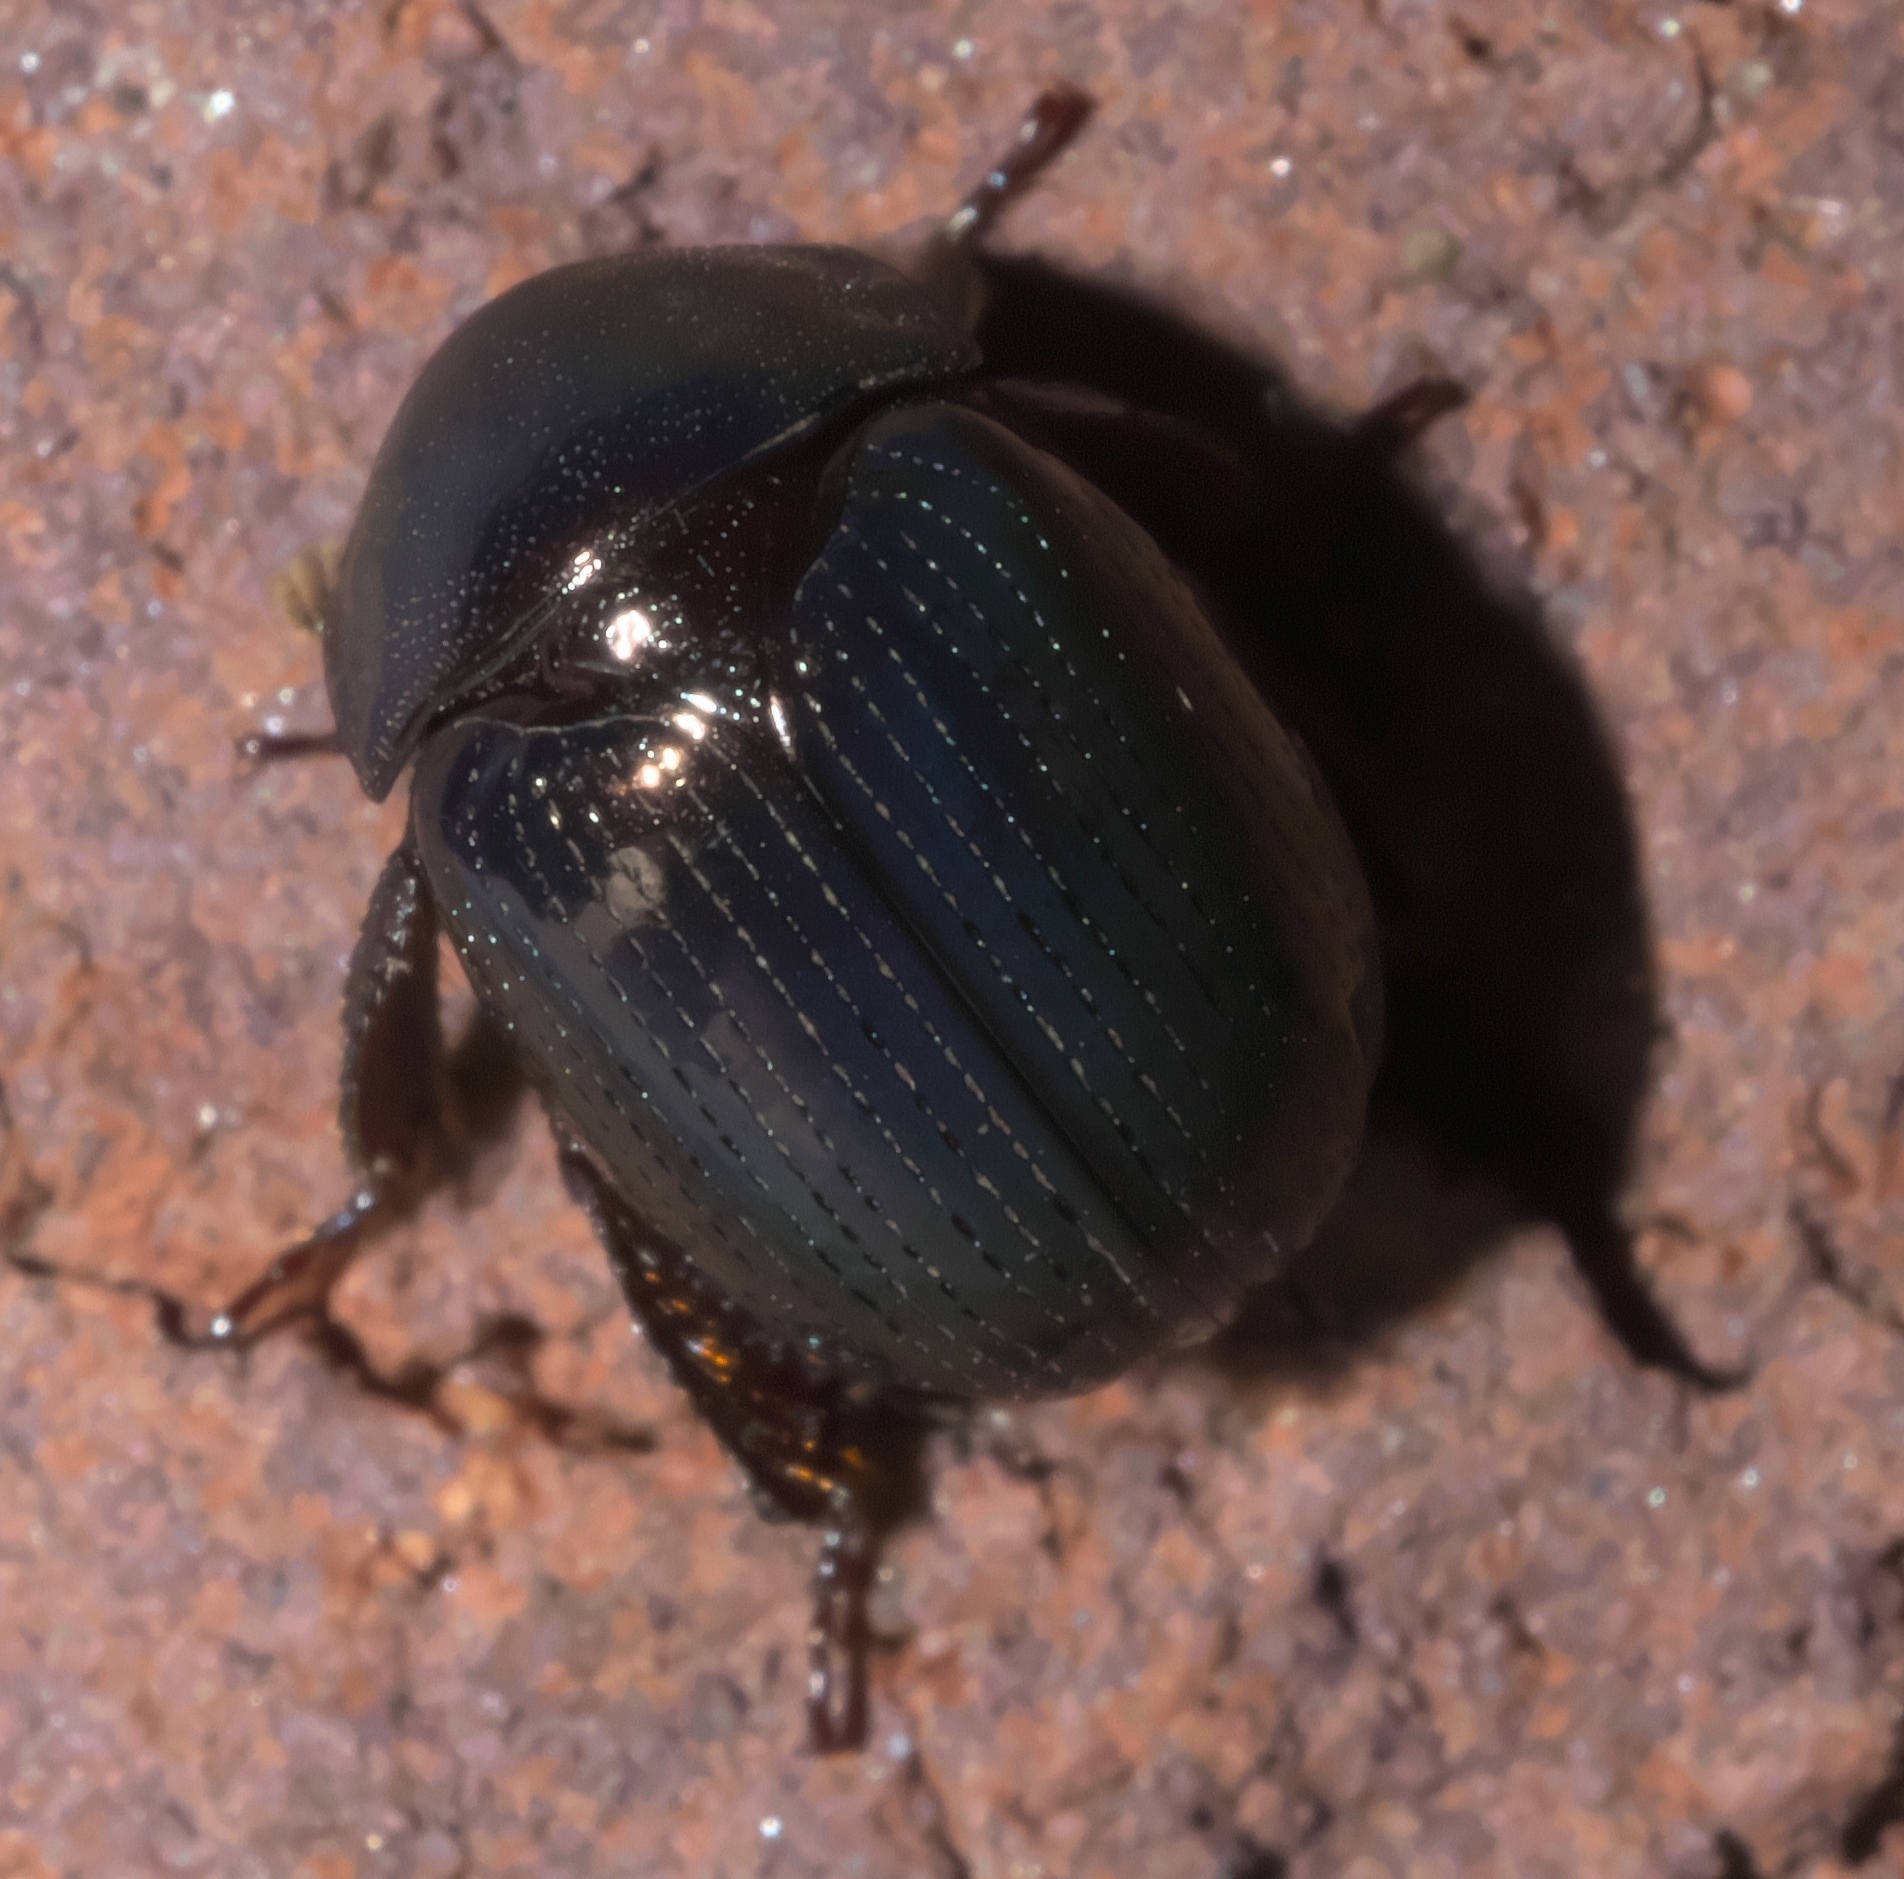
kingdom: Animalia
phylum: Arthropoda
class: Insecta
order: Coleoptera
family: Hybosoridae
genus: Germarostes
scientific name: Germarostes aphodioides
